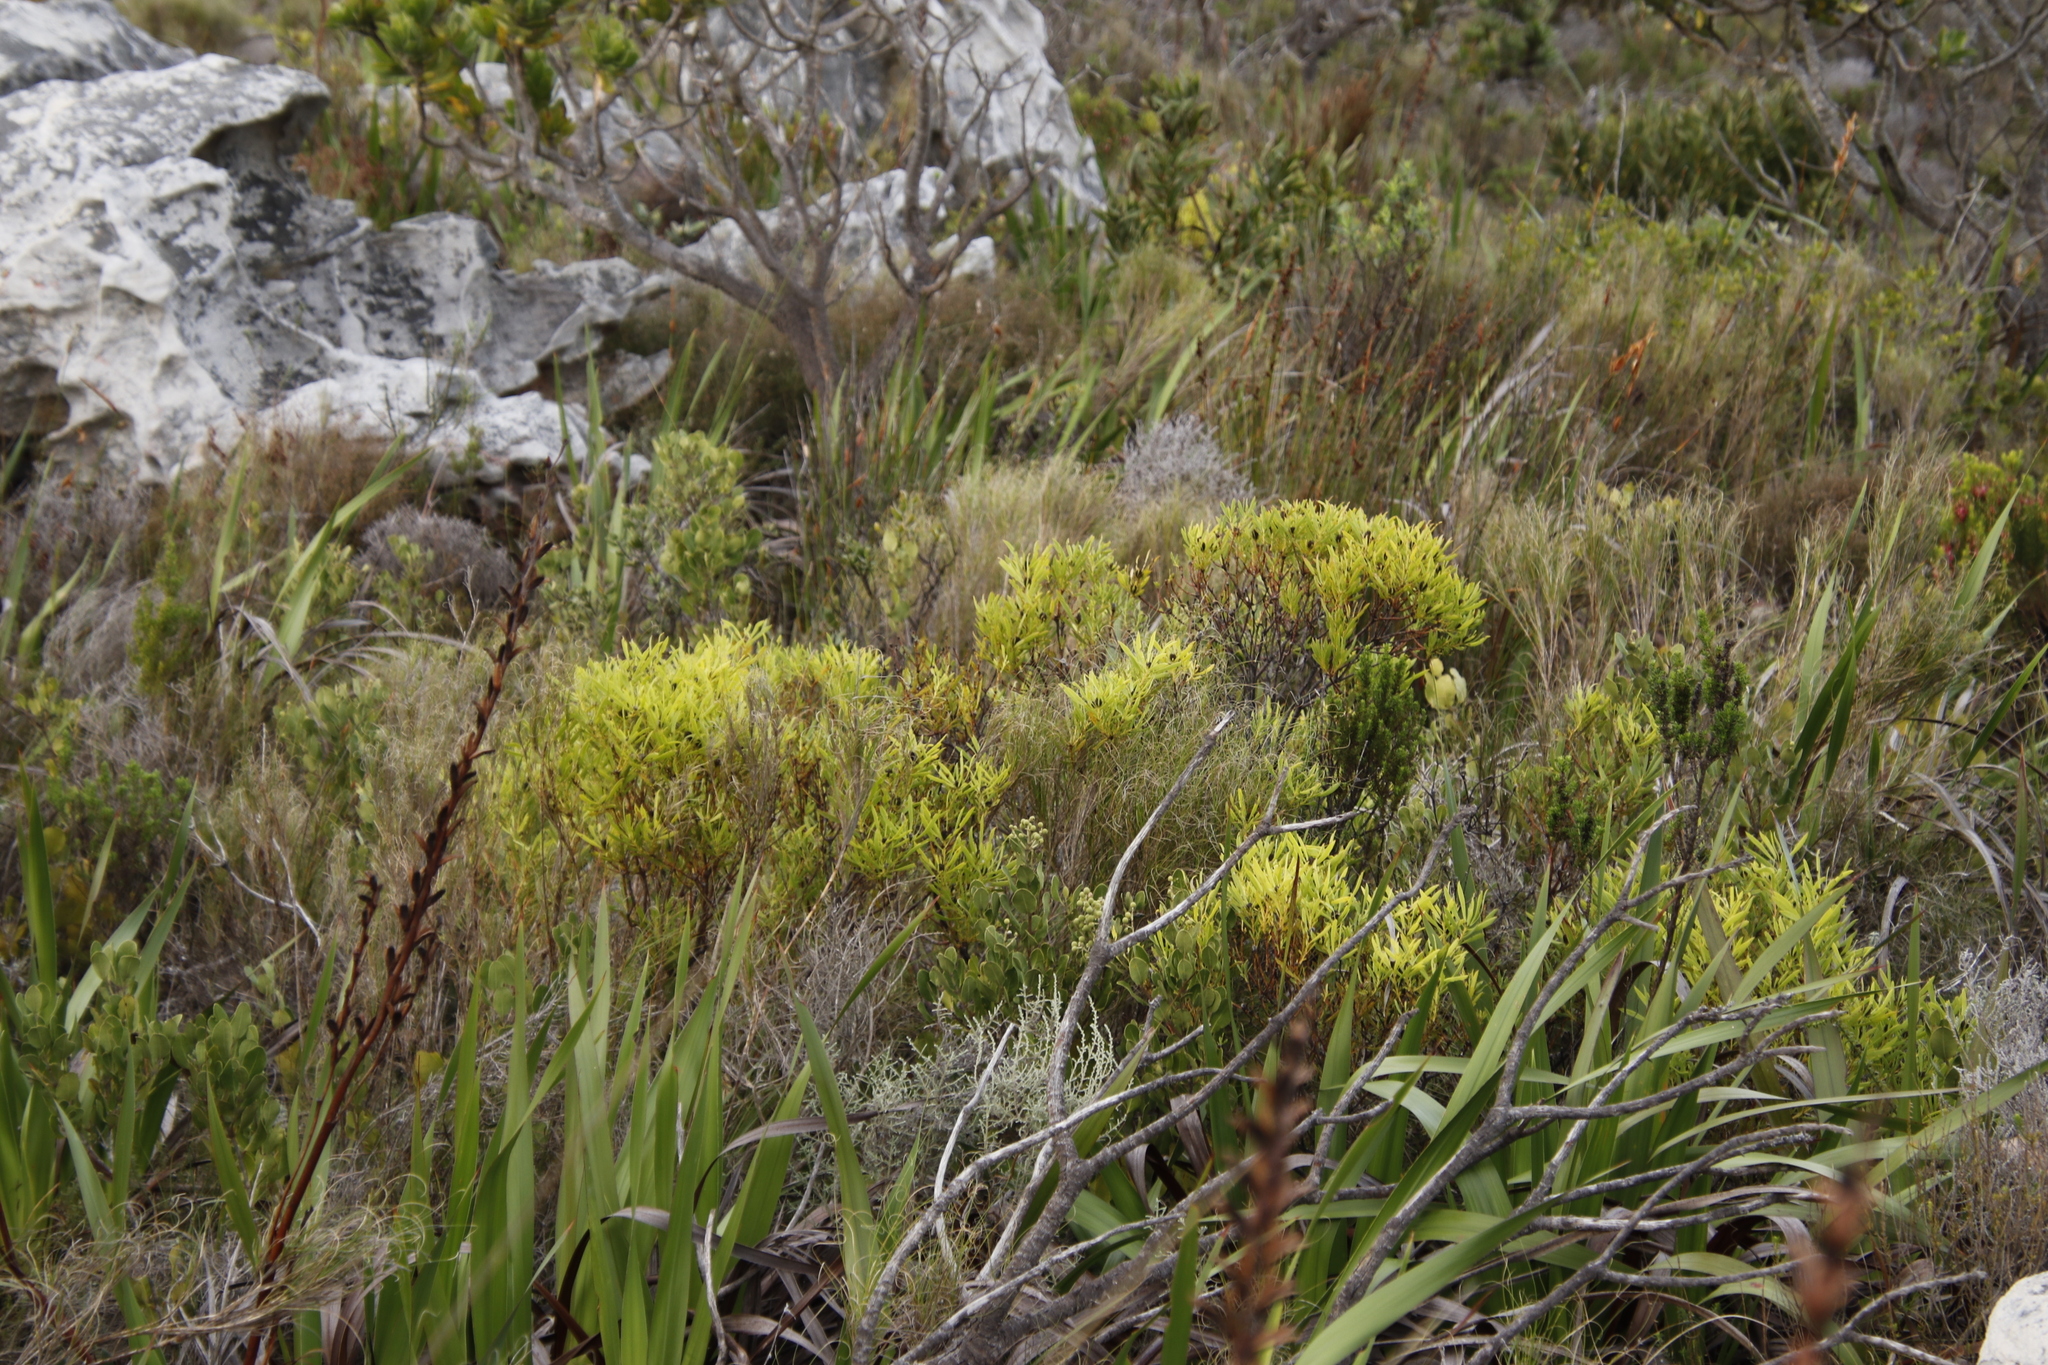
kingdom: Plantae
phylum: Tracheophyta
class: Magnoliopsida
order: Proteales
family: Proteaceae
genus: Leucadendron
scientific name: Leucadendron salignum
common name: Common sunshine conebush
